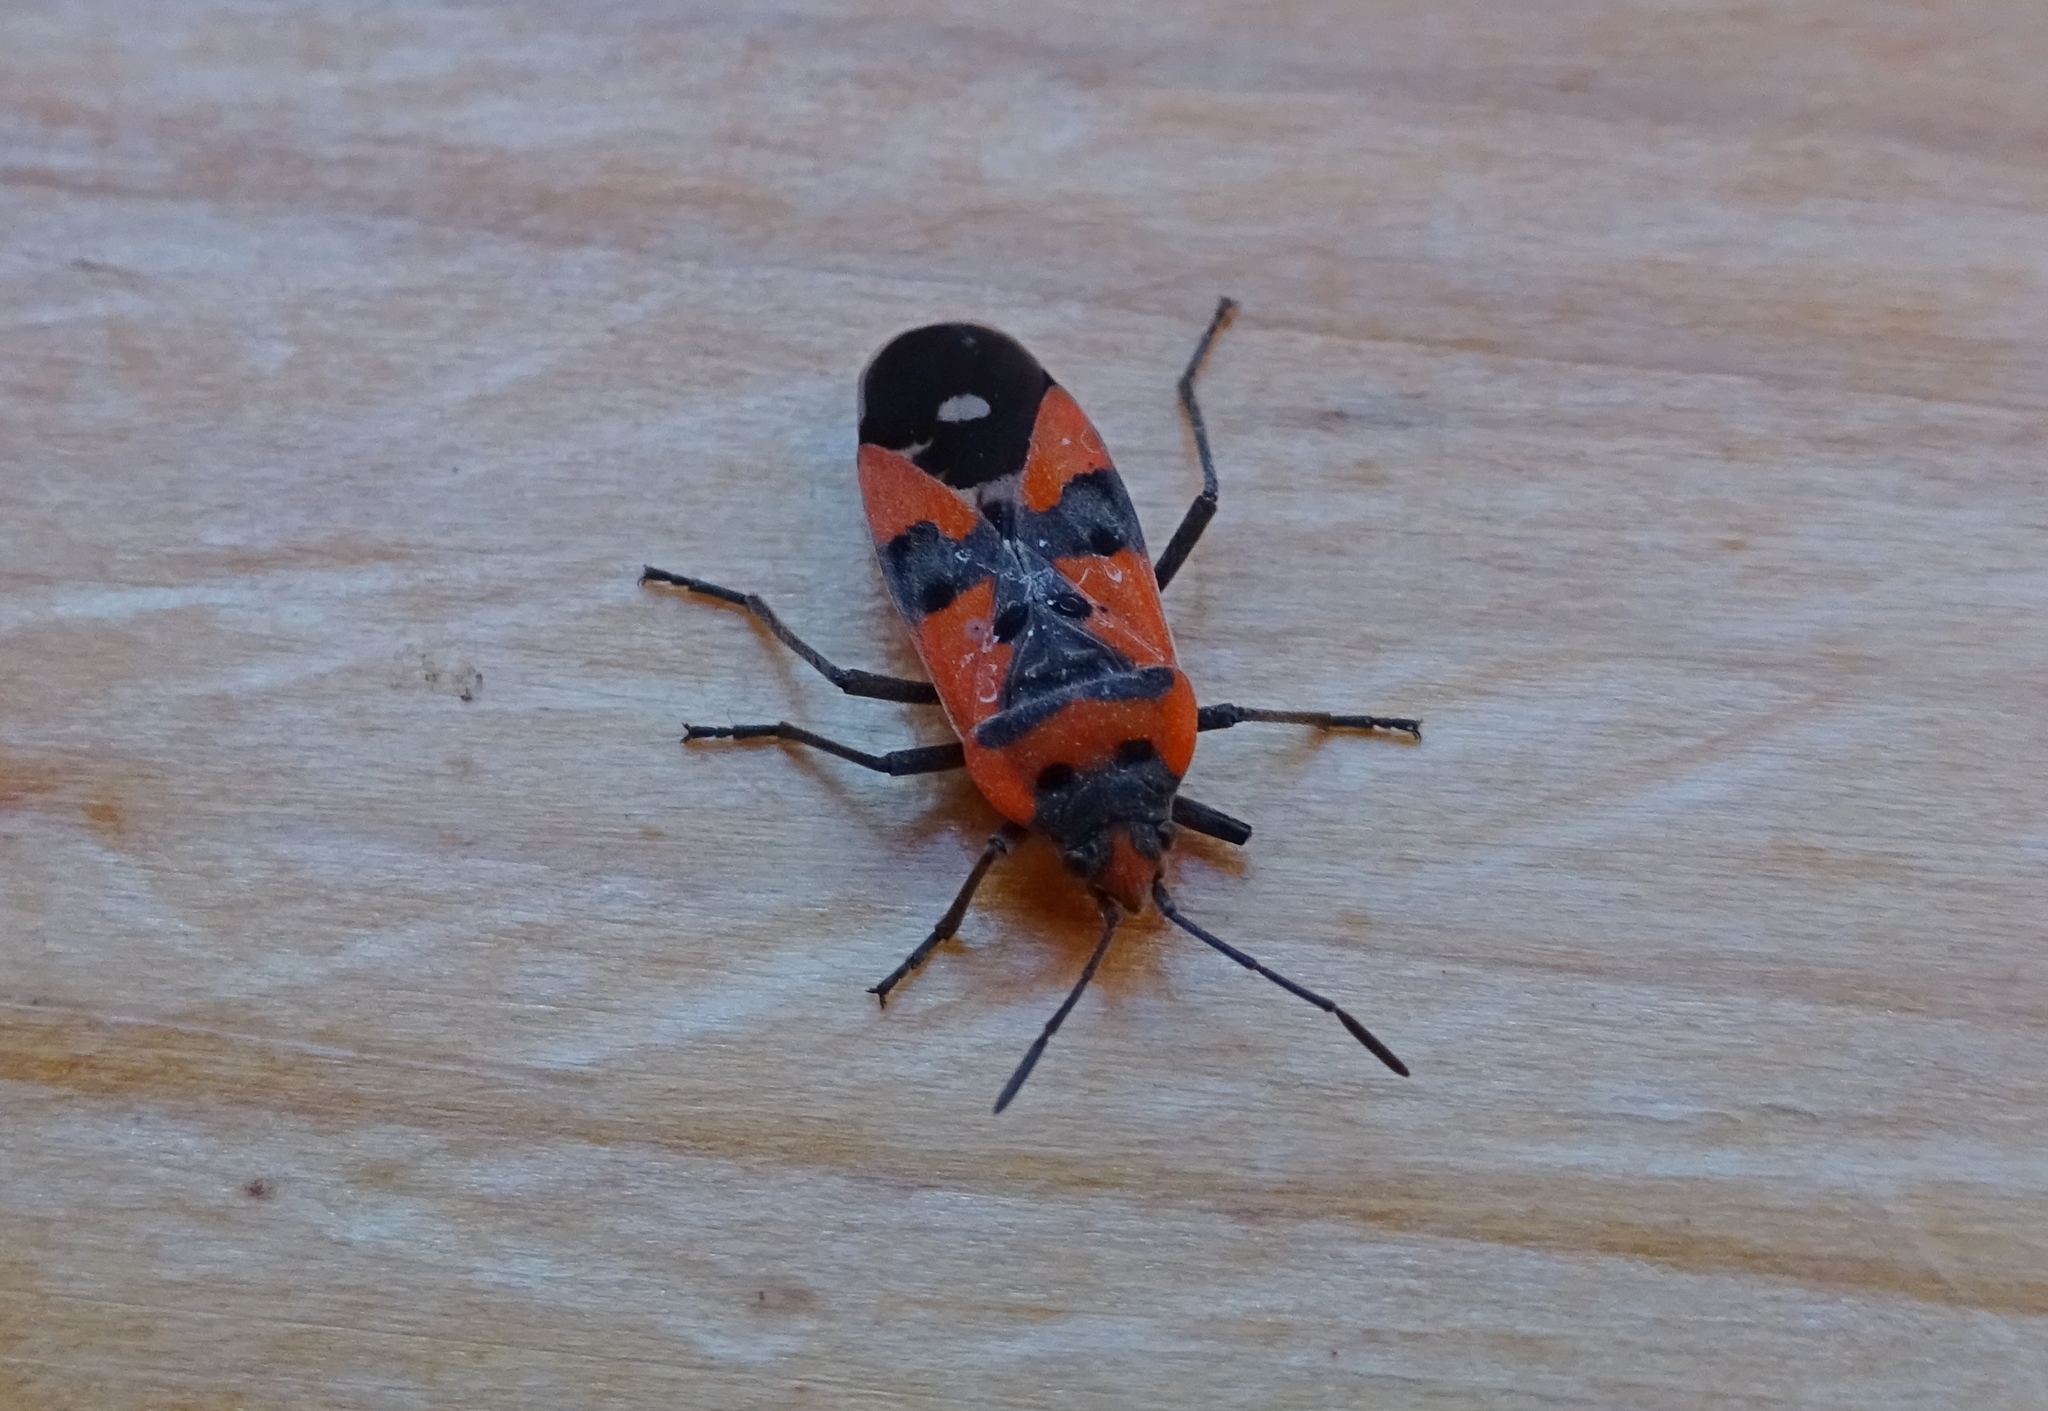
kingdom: Animalia
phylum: Arthropoda
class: Insecta
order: Hemiptera
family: Lygaeidae
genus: Lygaeus
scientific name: Lygaeus equestris
